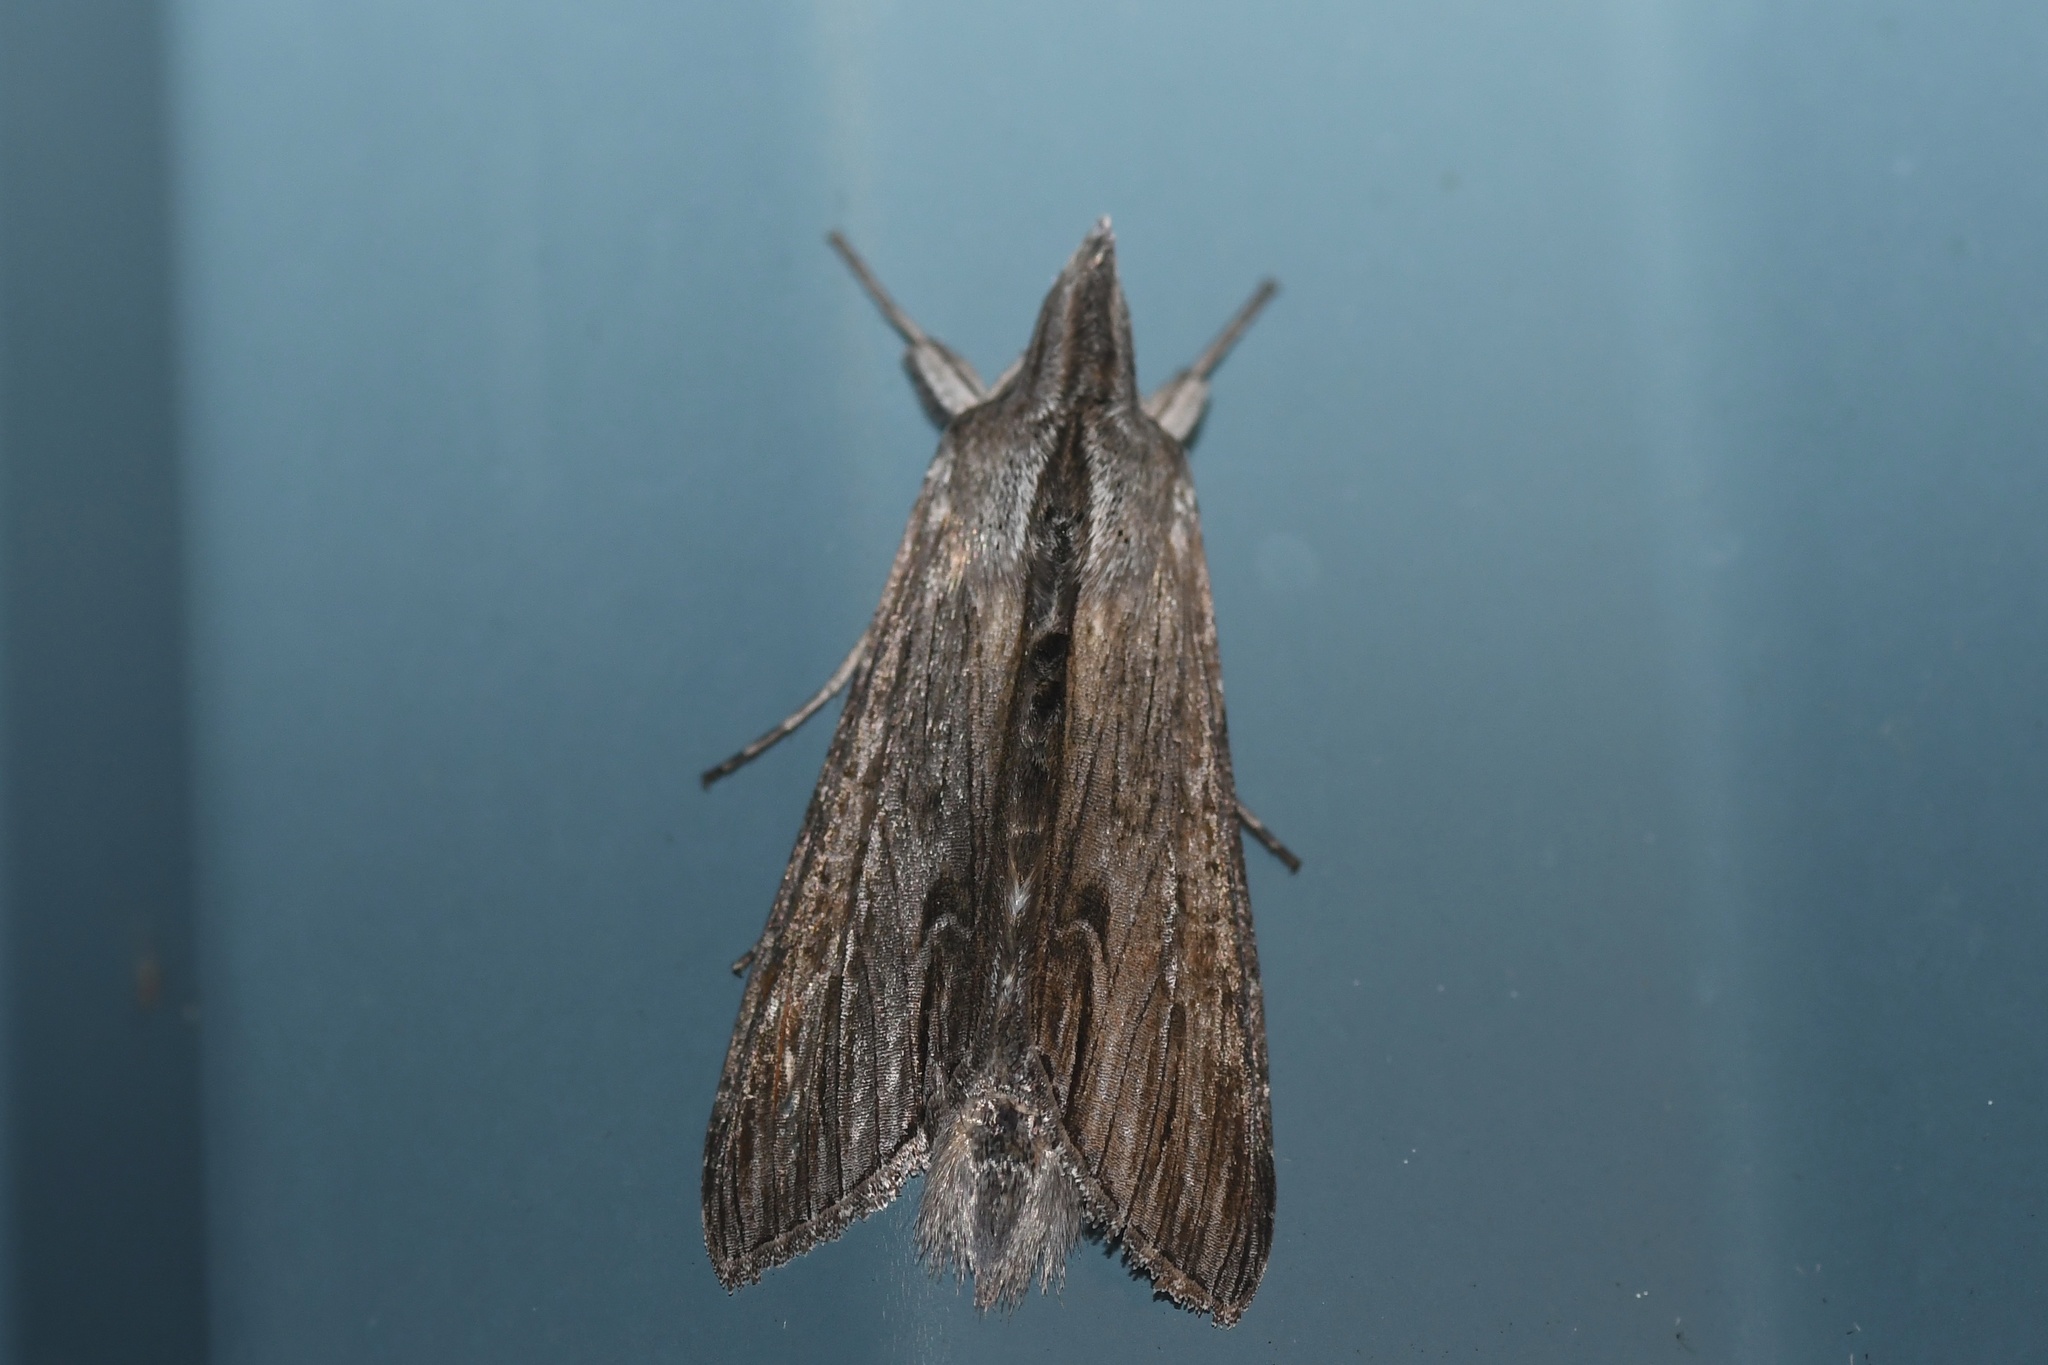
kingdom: Animalia
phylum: Arthropoda
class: Insecta
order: Lepidoptera
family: Noctuidae
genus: Cucullia
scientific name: Cucullia asteroides
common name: Asteroid moth
